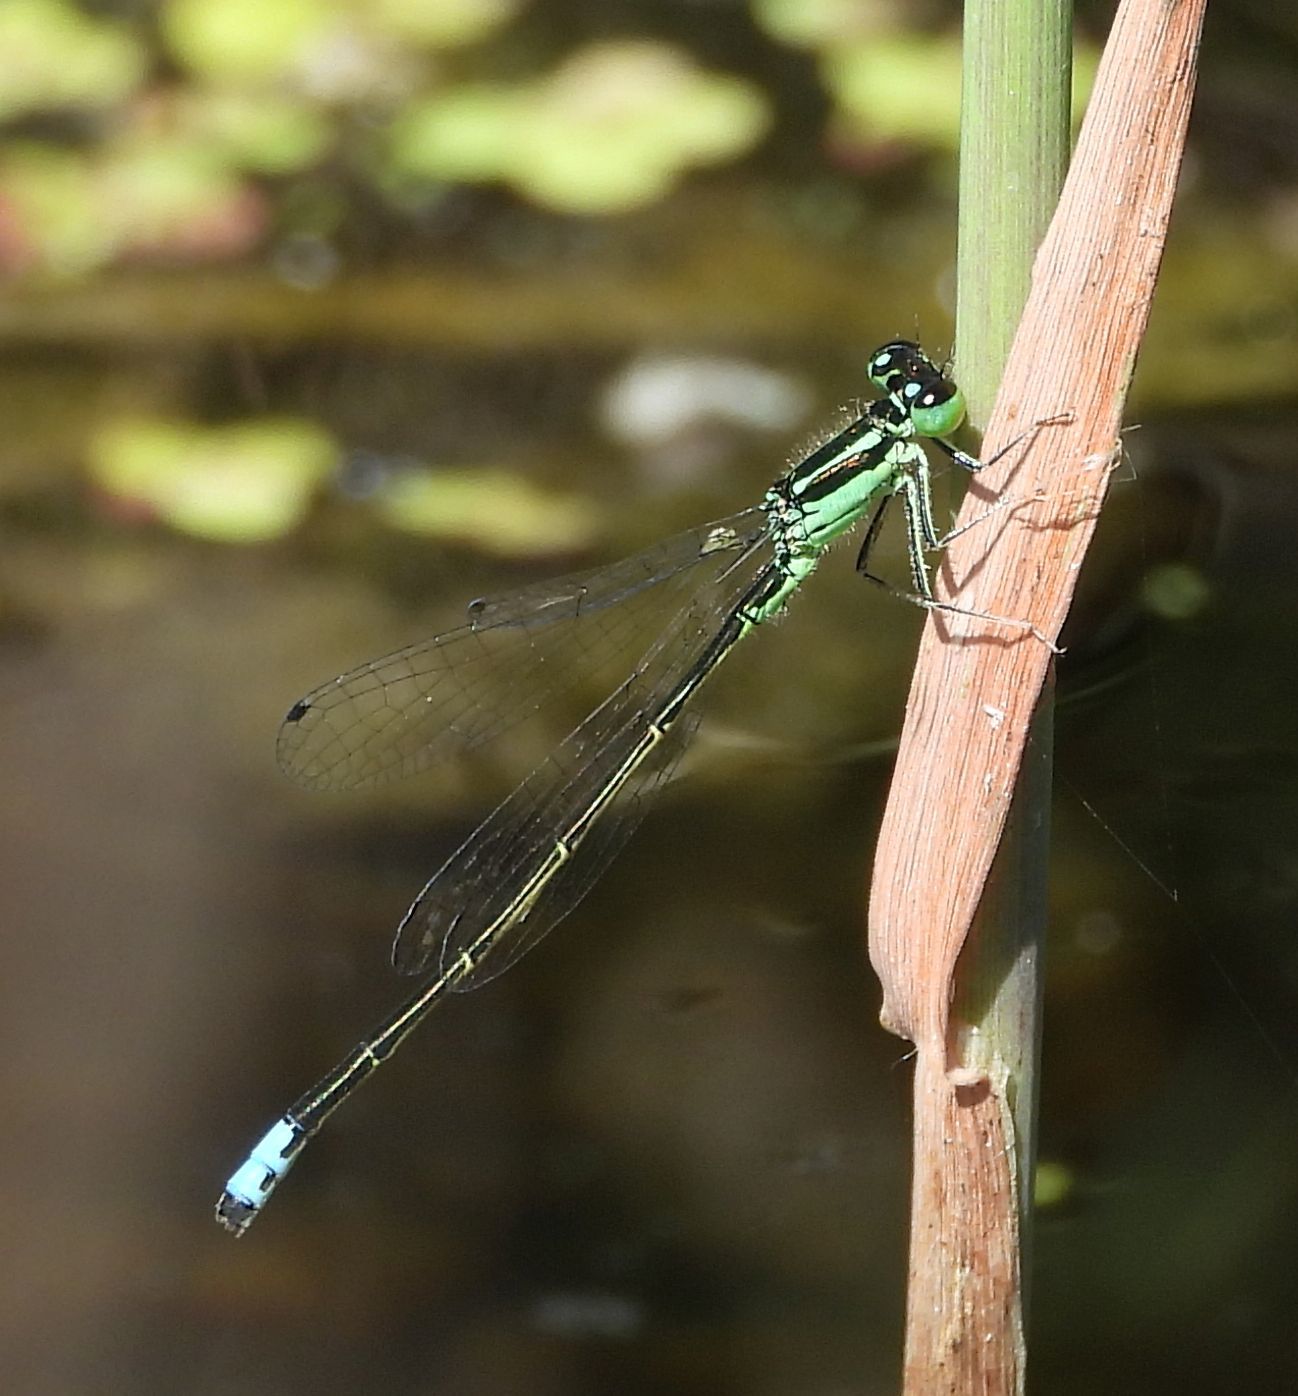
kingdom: Animalia
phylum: Arthropoda
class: Insecta
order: Odonata
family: Coenagrionidae
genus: Ischnura
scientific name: Ischnura verticalis
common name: Eastern forktail
